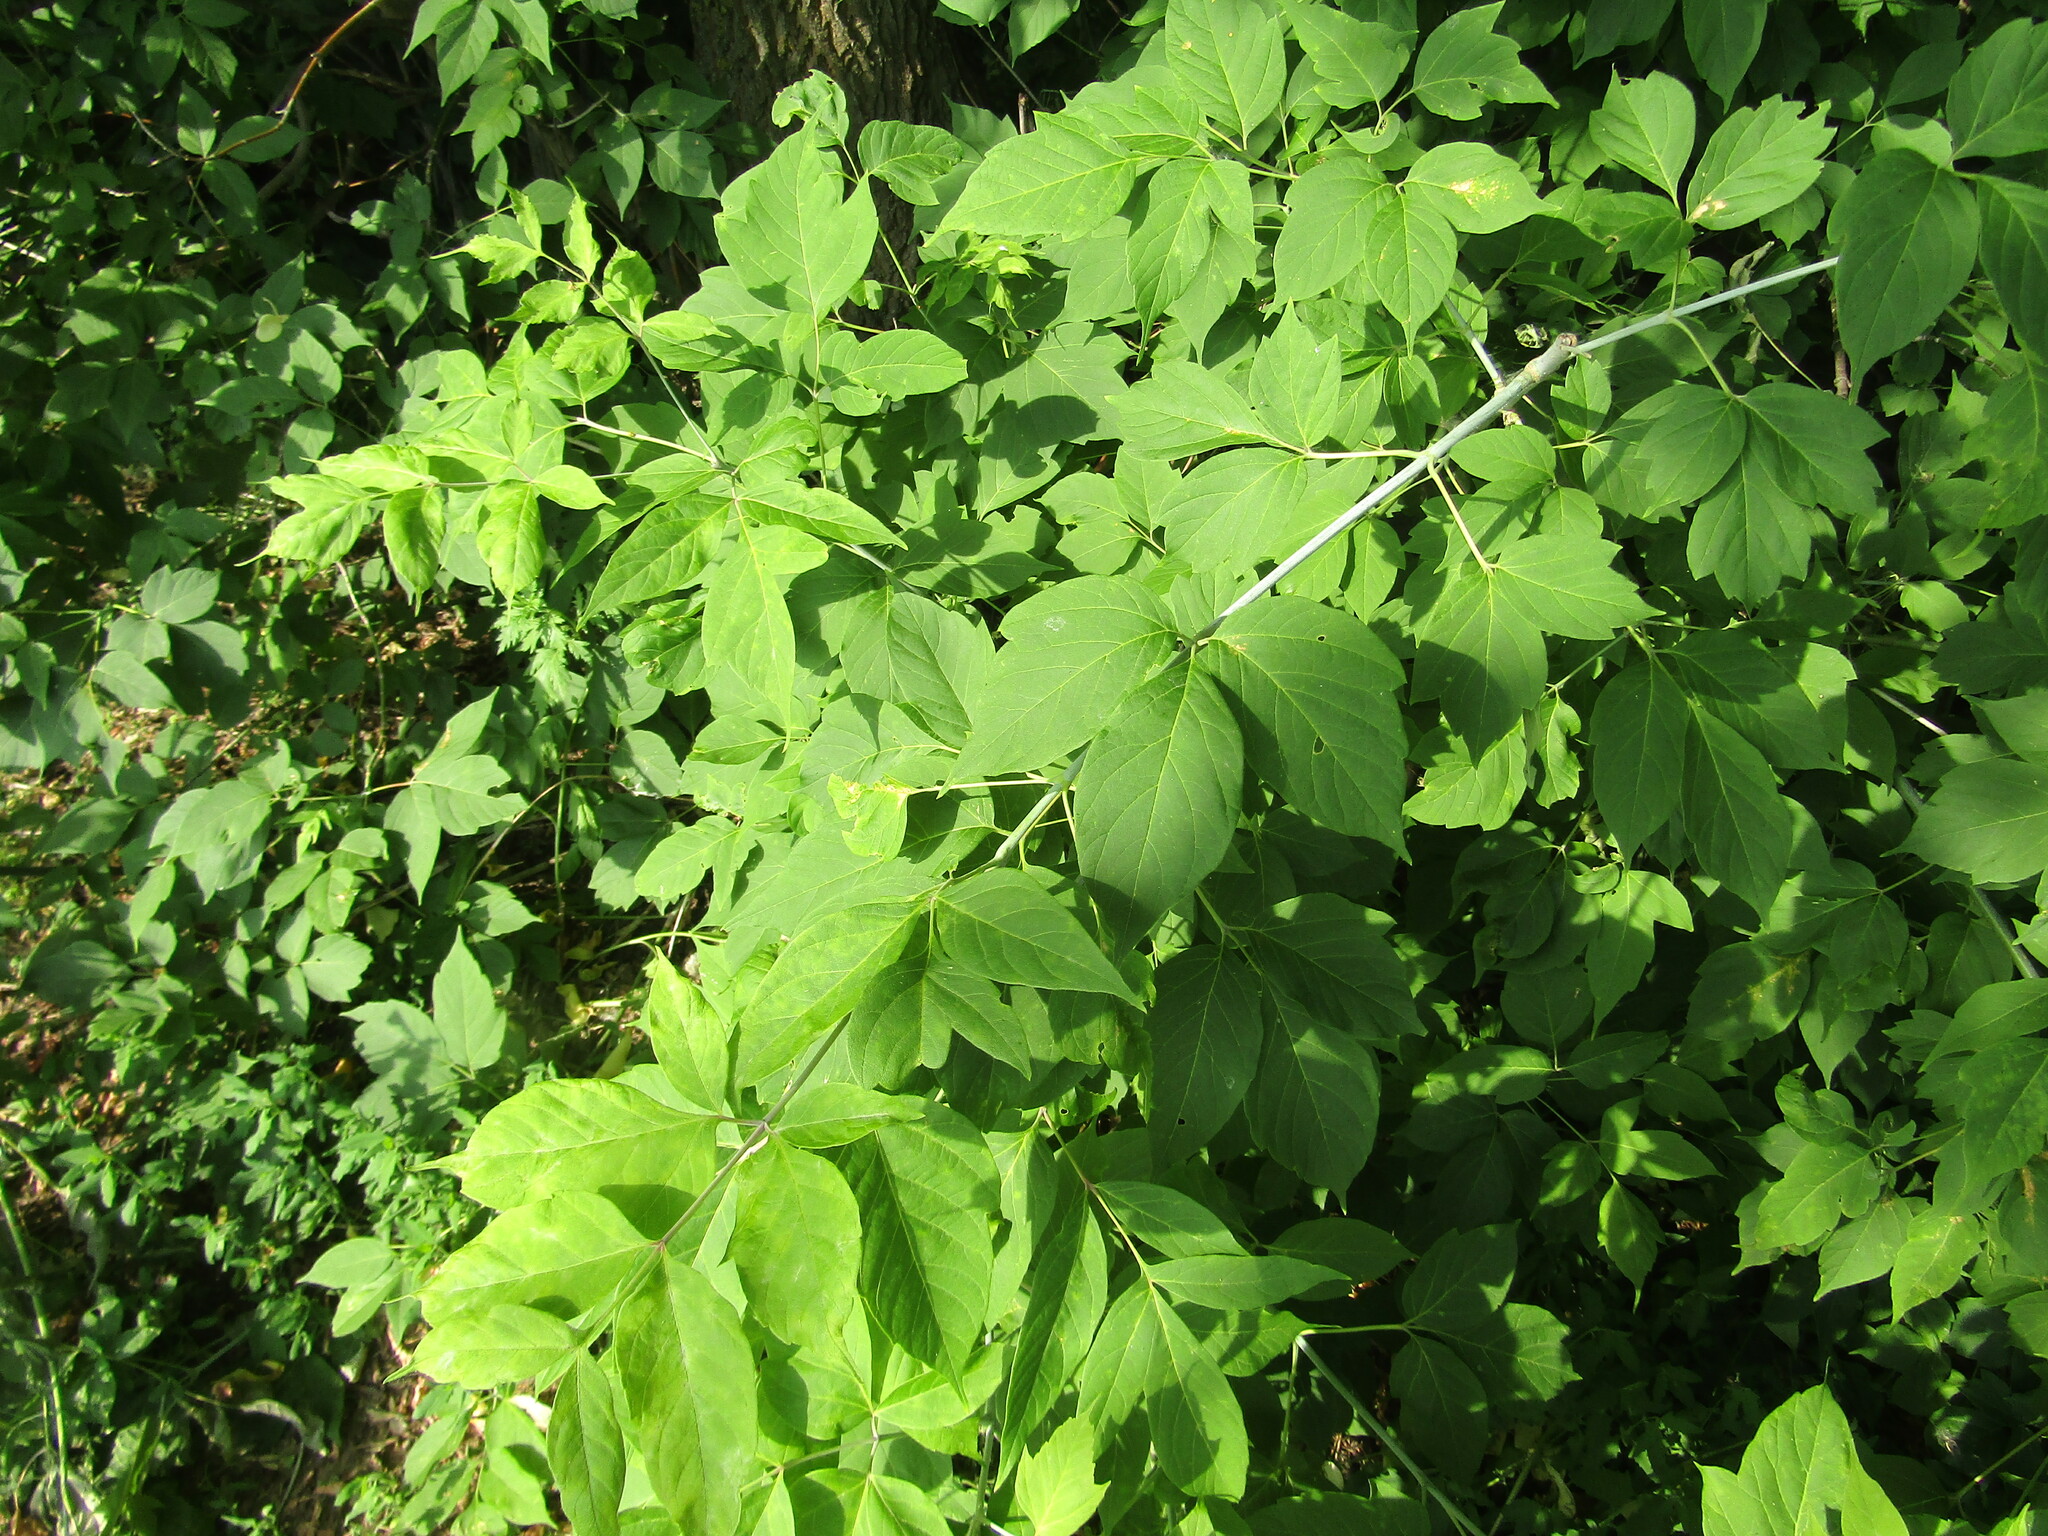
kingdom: Plantae
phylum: Tracheophyta
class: Magnoliopsida
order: Sapindales
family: Sapindaceae
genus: Acer
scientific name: Acer negundo
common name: Ashleaf maple
